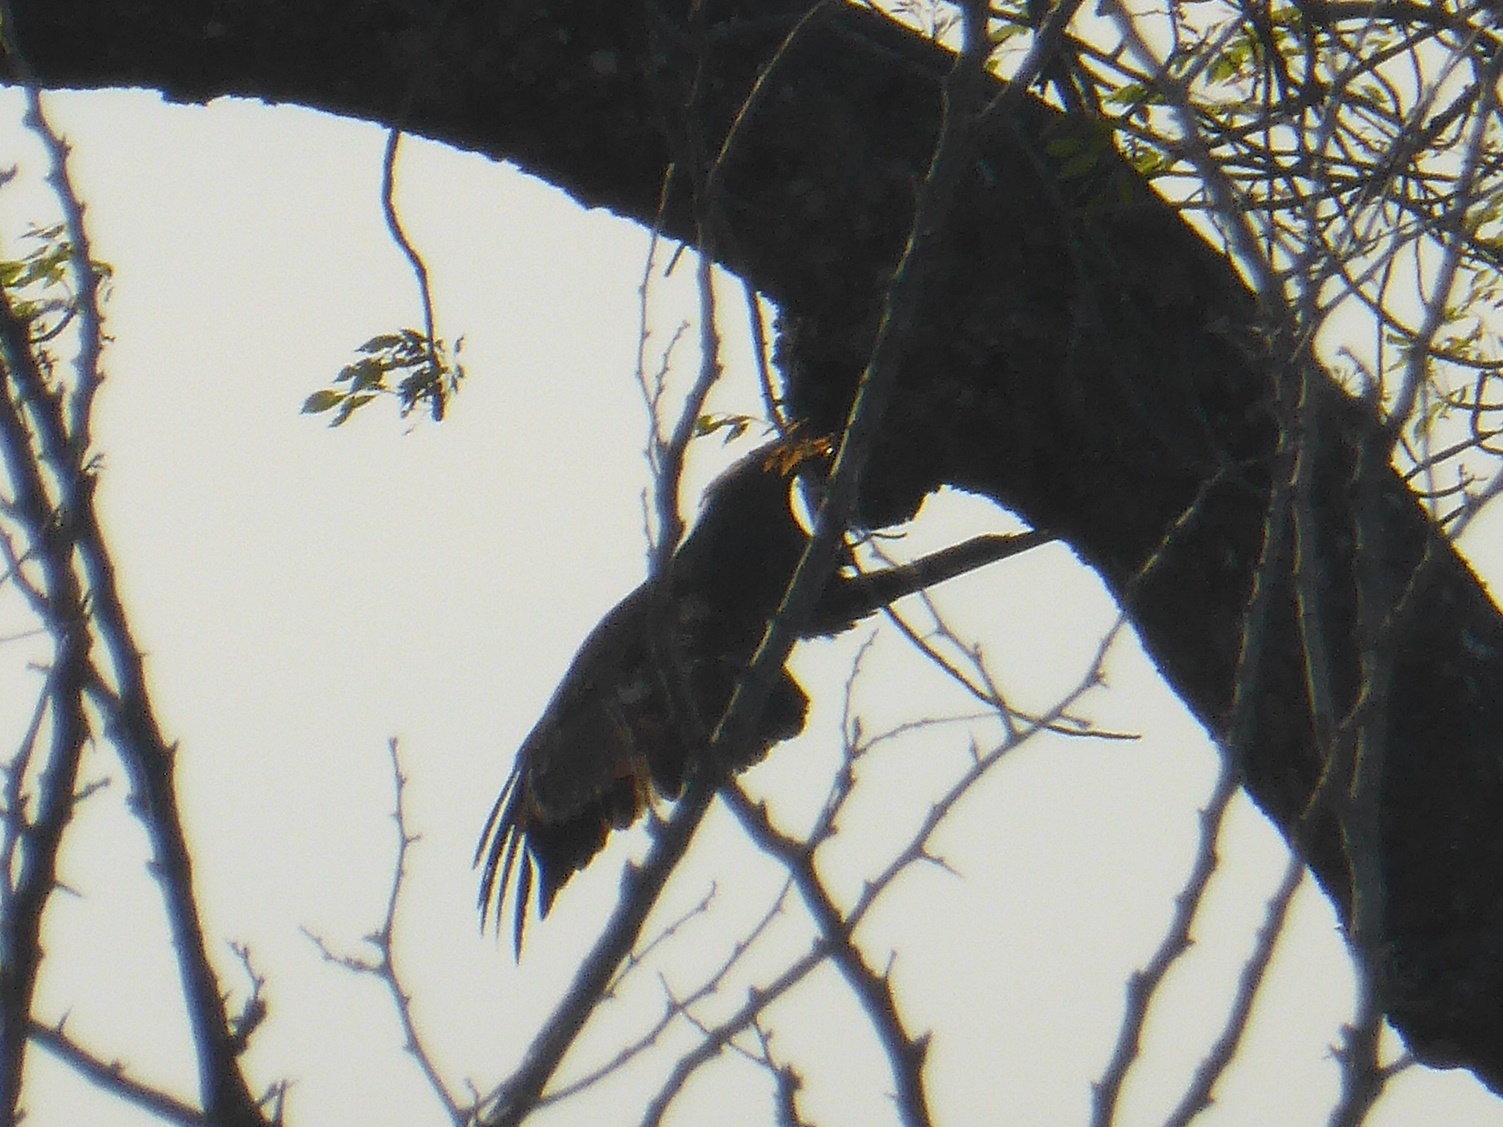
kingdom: Animalia
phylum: Chordata
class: Aves
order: Accipitriformes
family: Accipitridae
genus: Polyboroides
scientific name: Polyboroides typus
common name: African harrier-hawk
